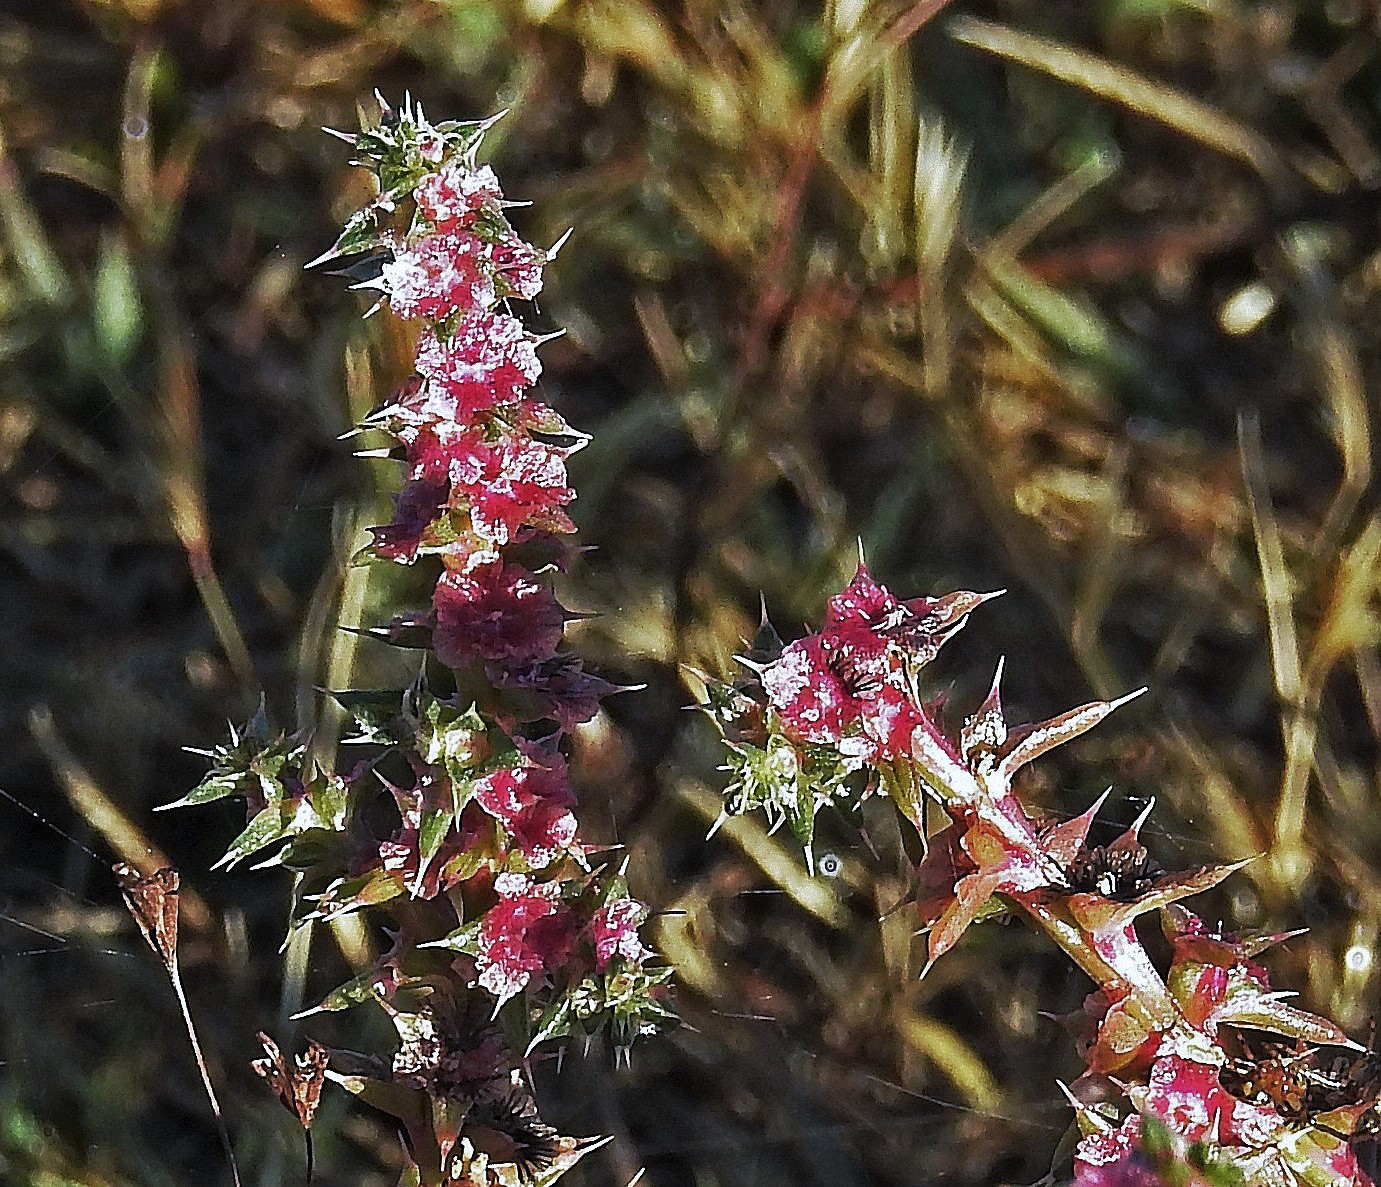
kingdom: Plantae
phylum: Tracheophyta
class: Magnoliopsida
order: Caryophyllales
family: Amaranthaceae
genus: Salsola
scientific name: Salsola kali
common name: Saltwort
